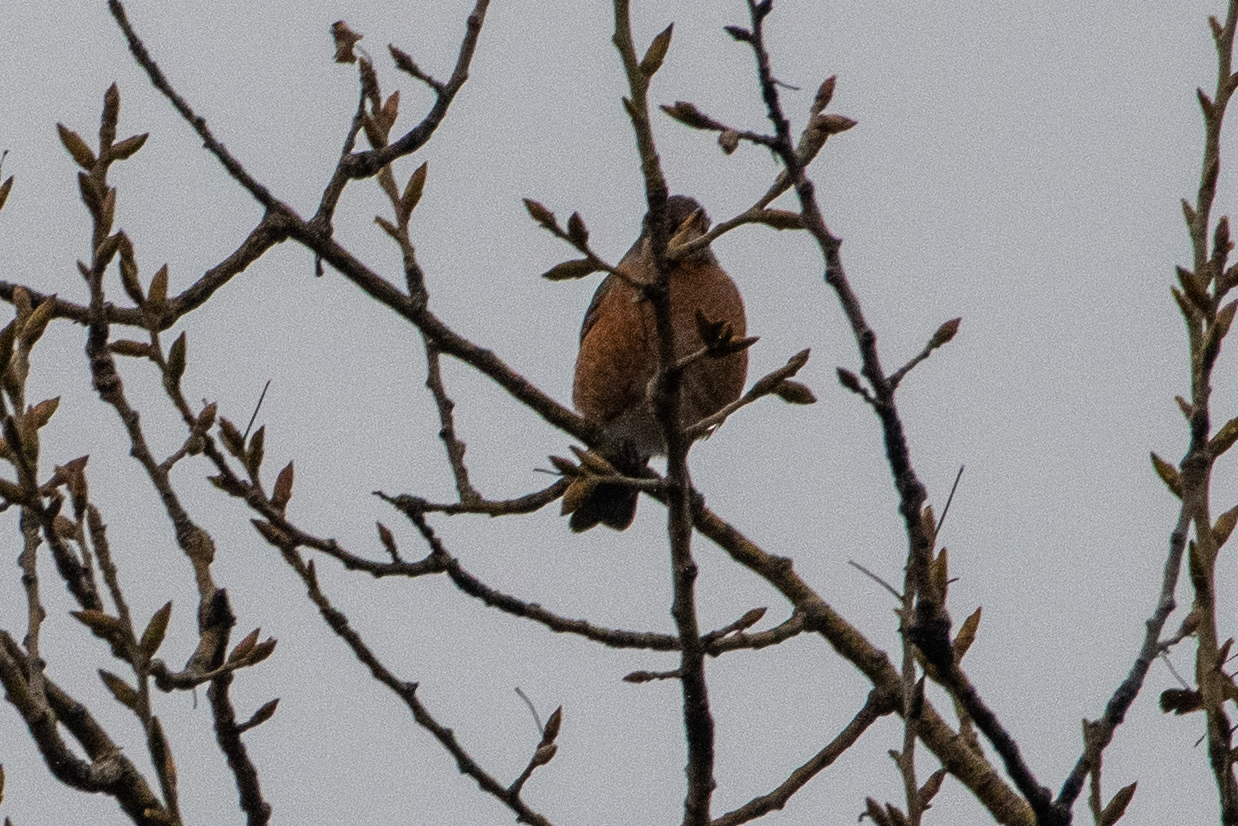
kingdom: Animalia
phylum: Chordata
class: Aves
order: Passeriformes
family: Turdidae
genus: Turdus
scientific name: Turdus migratorius
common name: American robin
